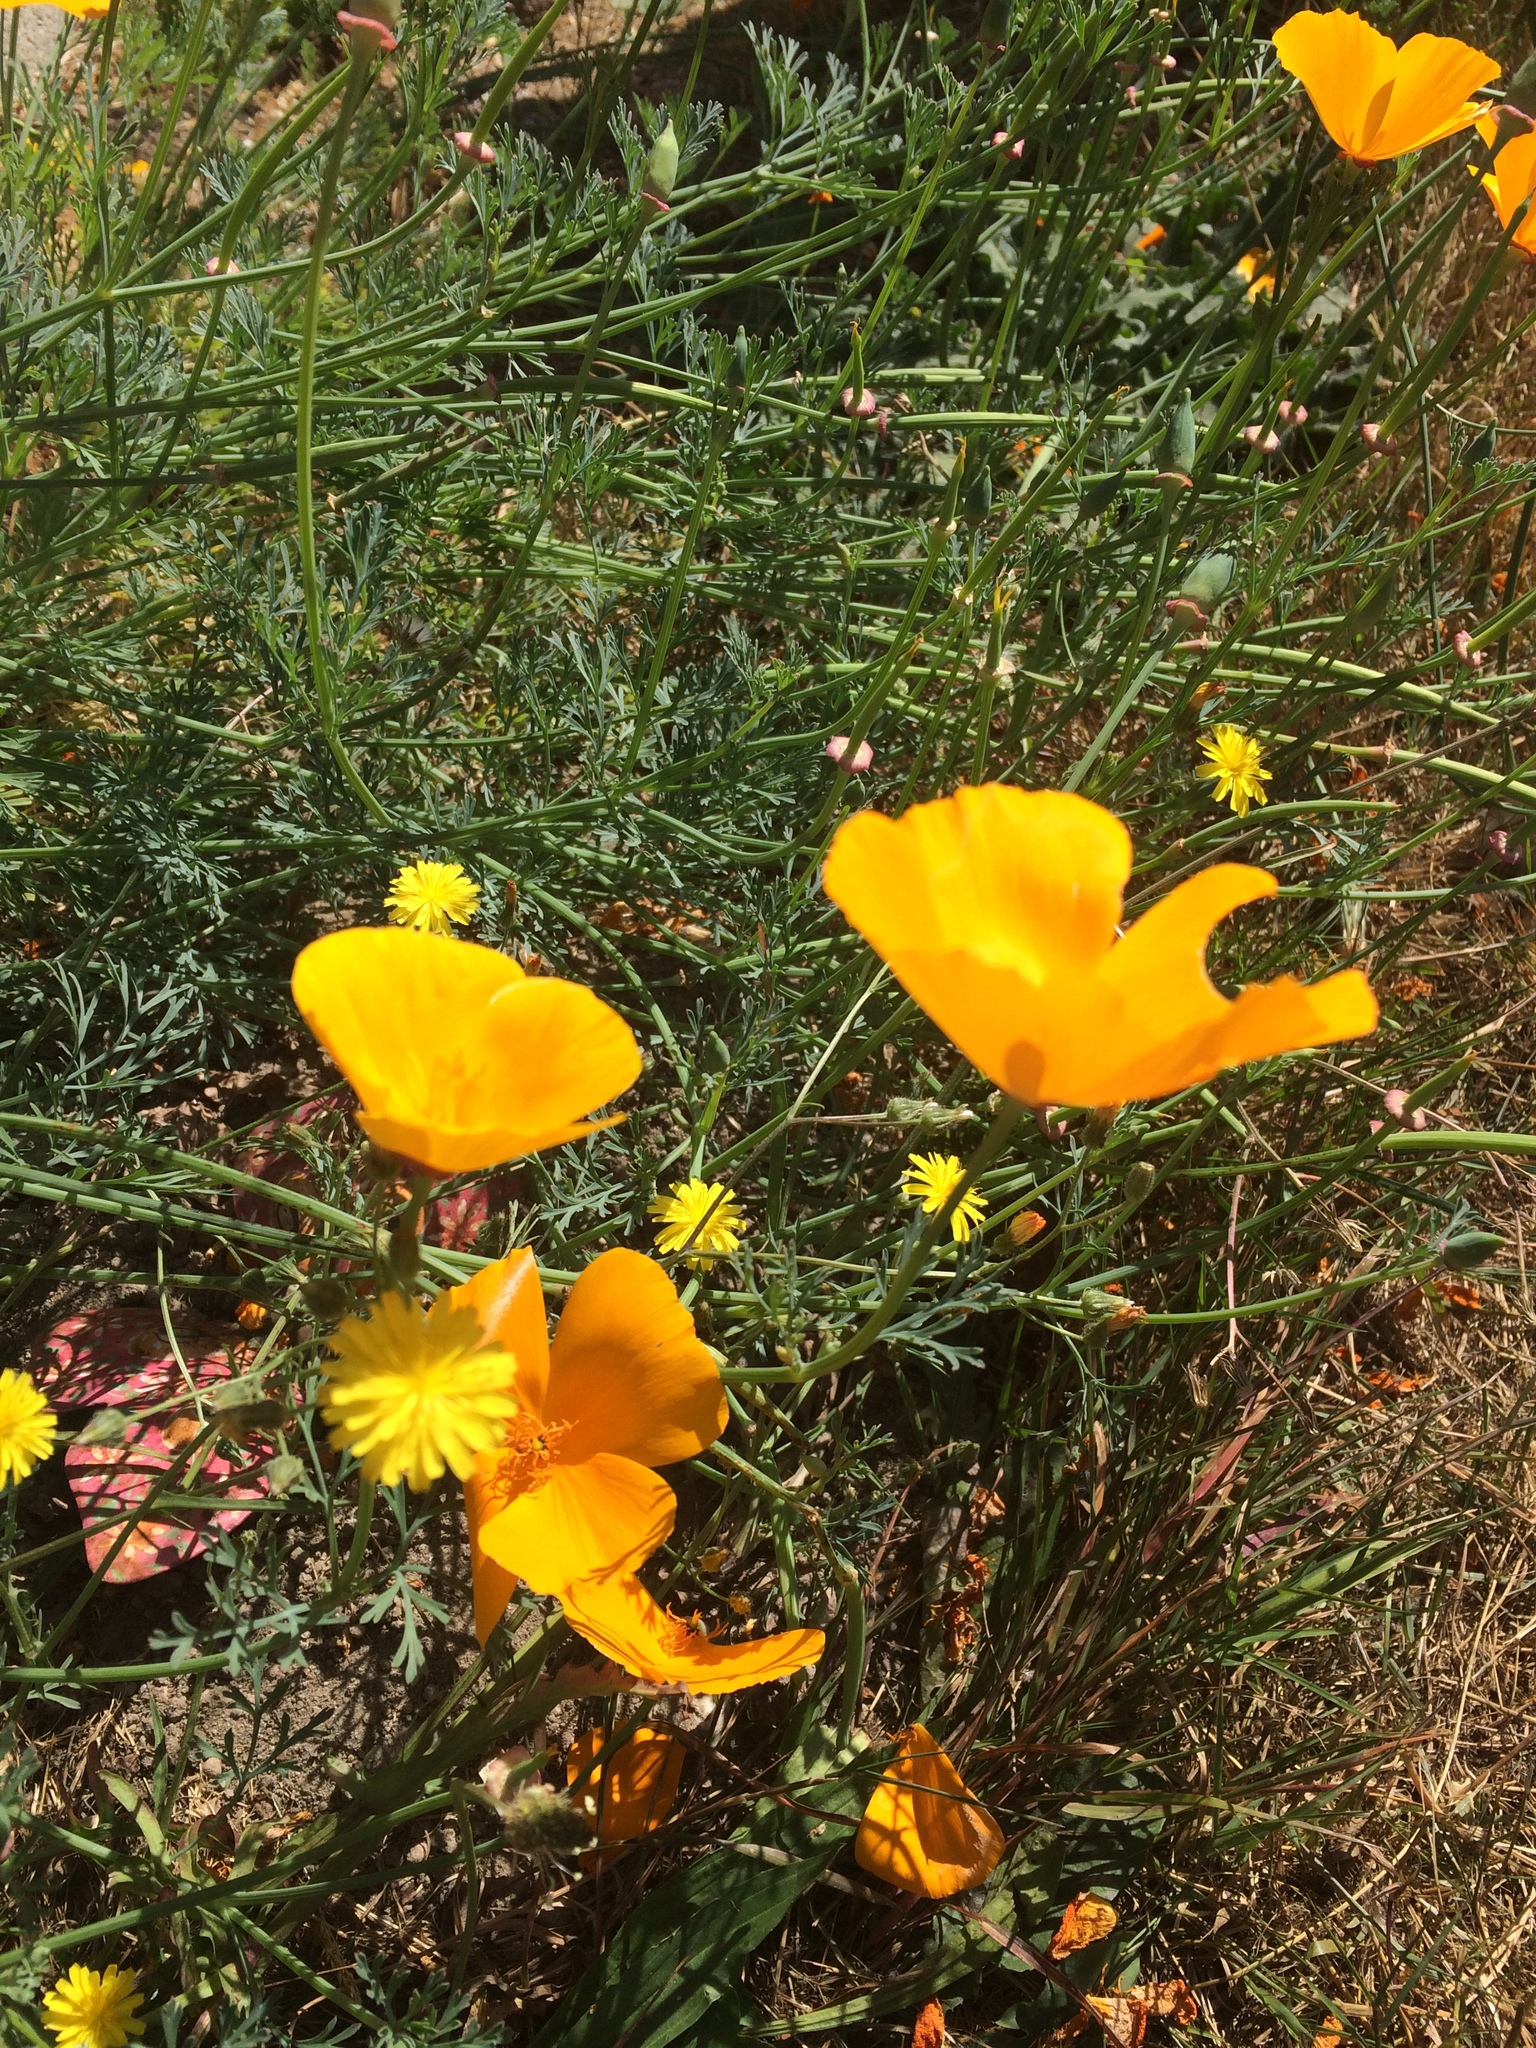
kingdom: Plantae
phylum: Tracheophyta
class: Magnoliopsida
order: Ranunculales
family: Papaveraceae
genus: Eschscholzia
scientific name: Eschscholzia californica
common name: California poppy
